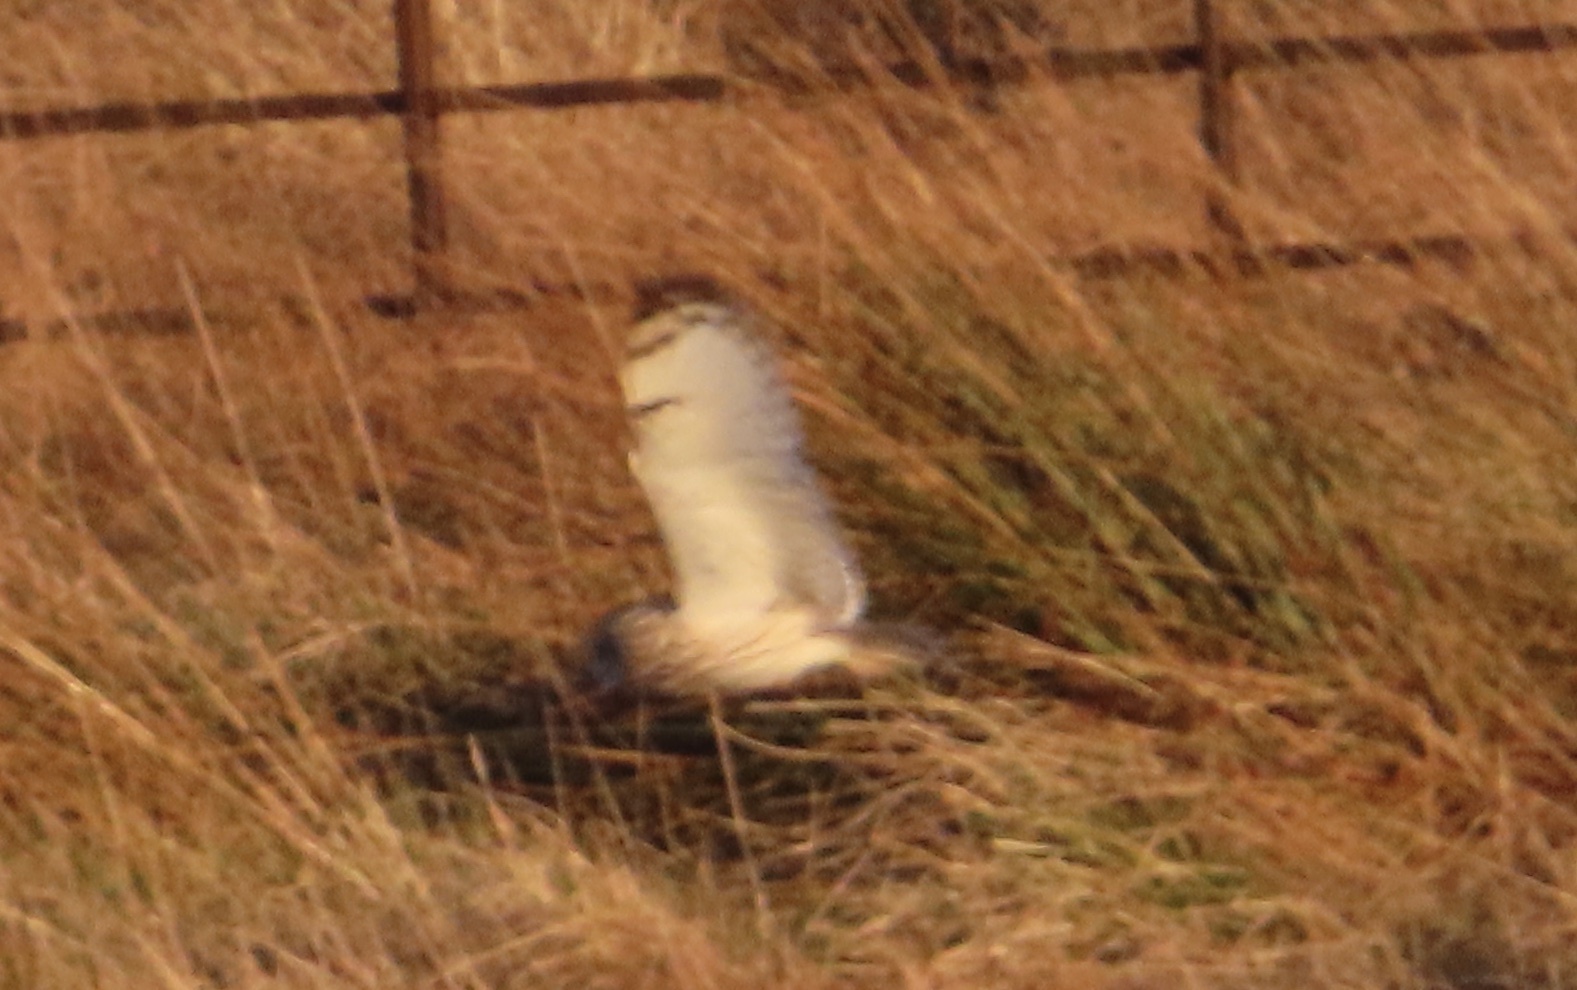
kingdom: Animalia
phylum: Chordata
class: Aves
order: Strigiformes
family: Strigidae
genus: Asio
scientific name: Asio flammeus
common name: Short-eared owl
